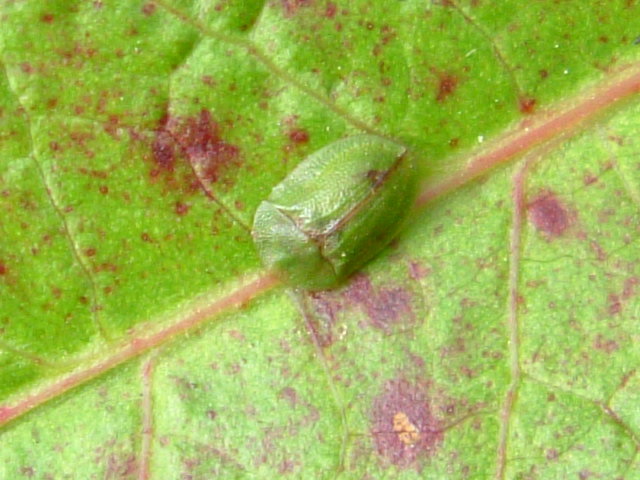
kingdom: Animalia
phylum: Arthropoda
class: Insecta
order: Coleoptera
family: Chrysomelidae
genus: Cassida
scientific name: Cassida rubiginosa
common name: Thistle tortoise beetle
